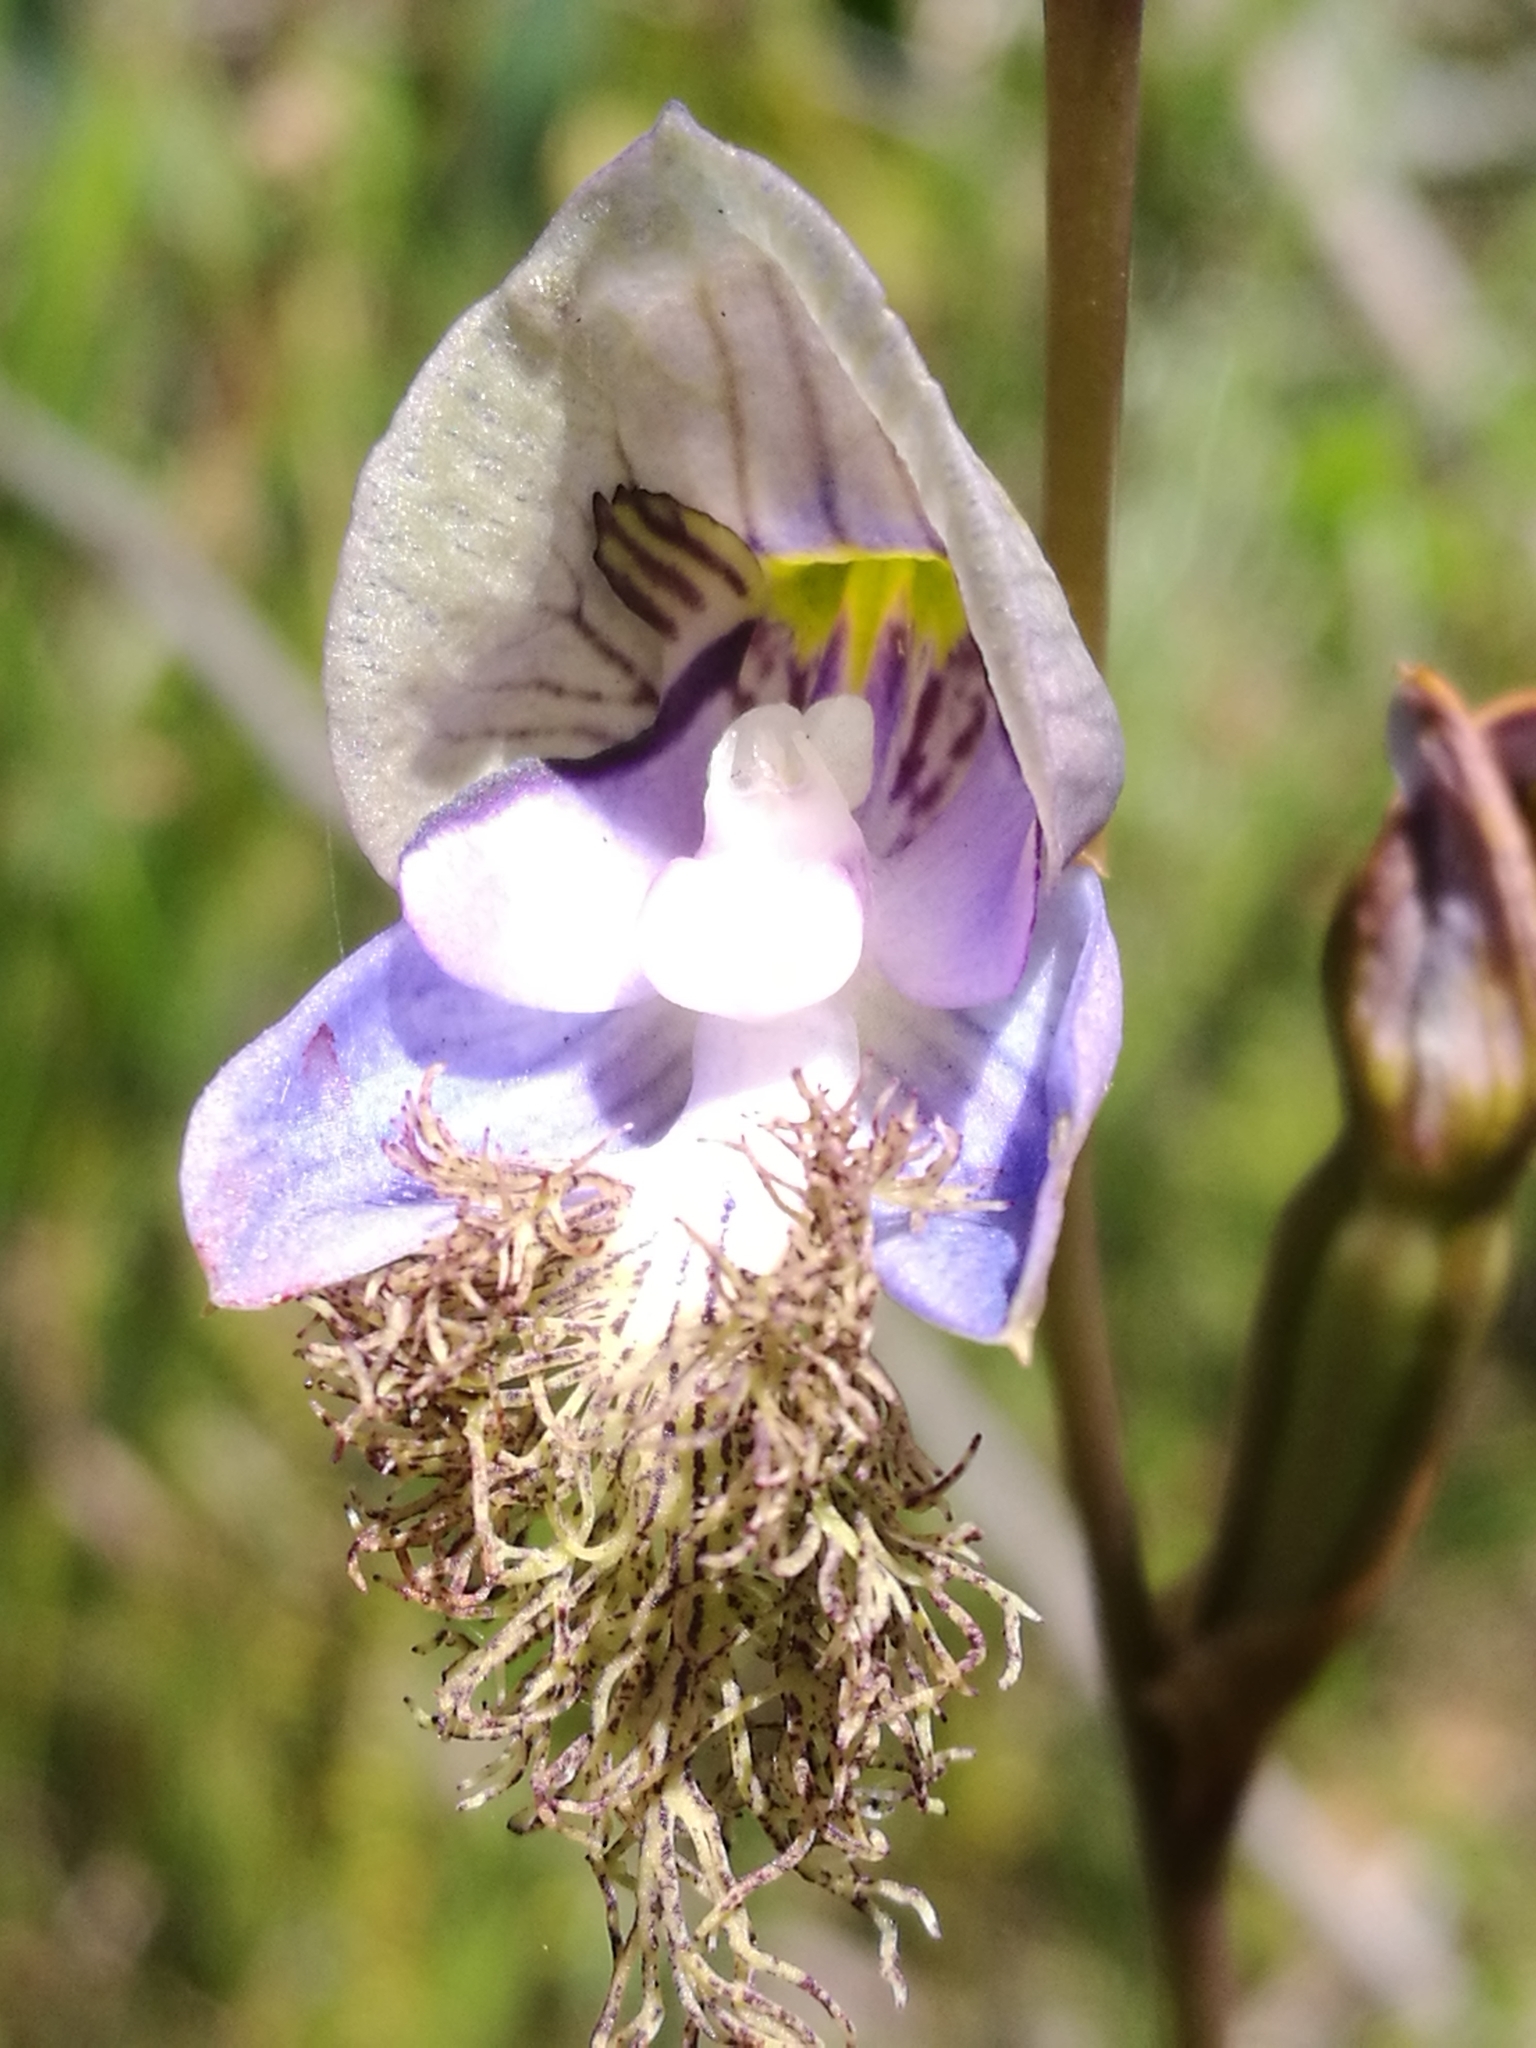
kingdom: Plantae
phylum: Tracheophyta
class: Liliopsida
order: Asparagales
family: Orchidaceae
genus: Disa
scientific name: Disa lugens
